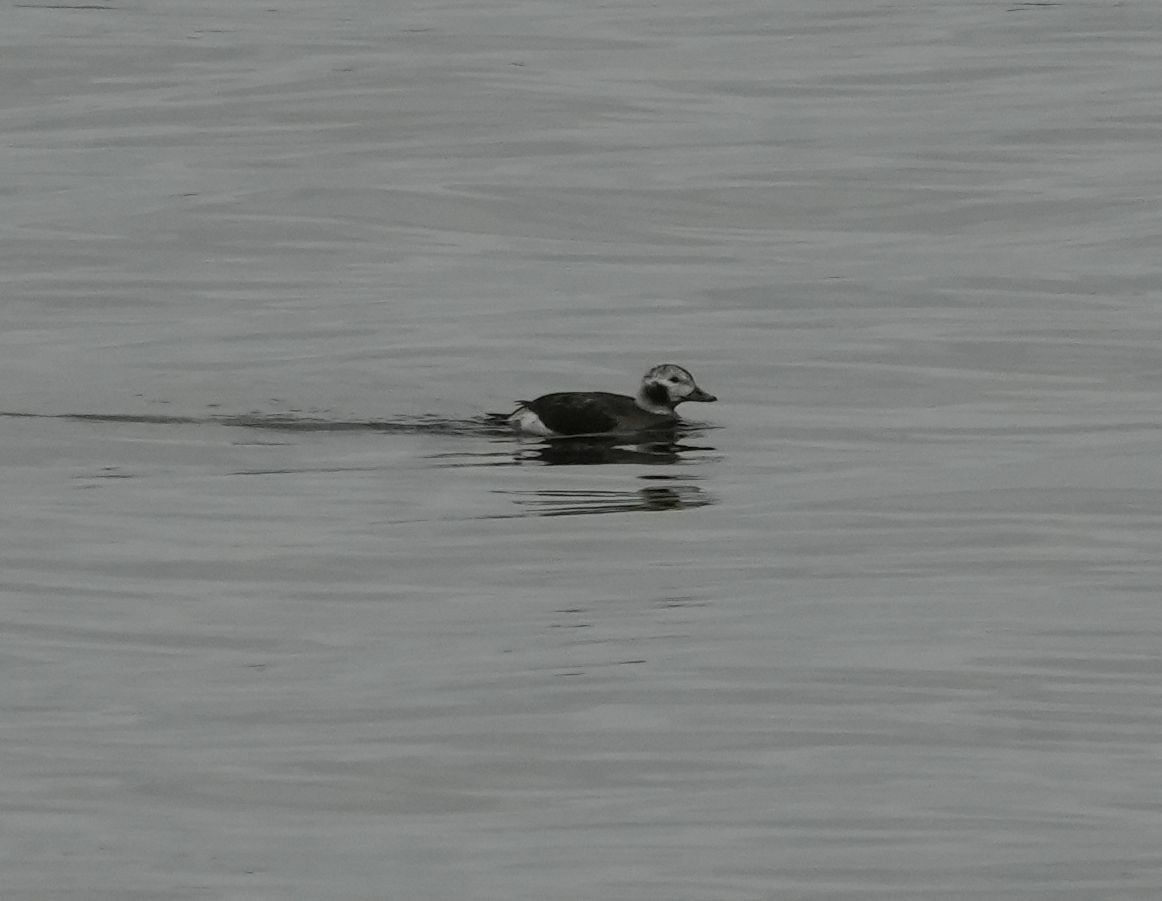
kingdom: Animalia
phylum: Chordata
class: Aves
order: Anseriformes
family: Anatidae
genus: Clangula
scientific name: Clangula hyemalis
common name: Long-tailed duck
